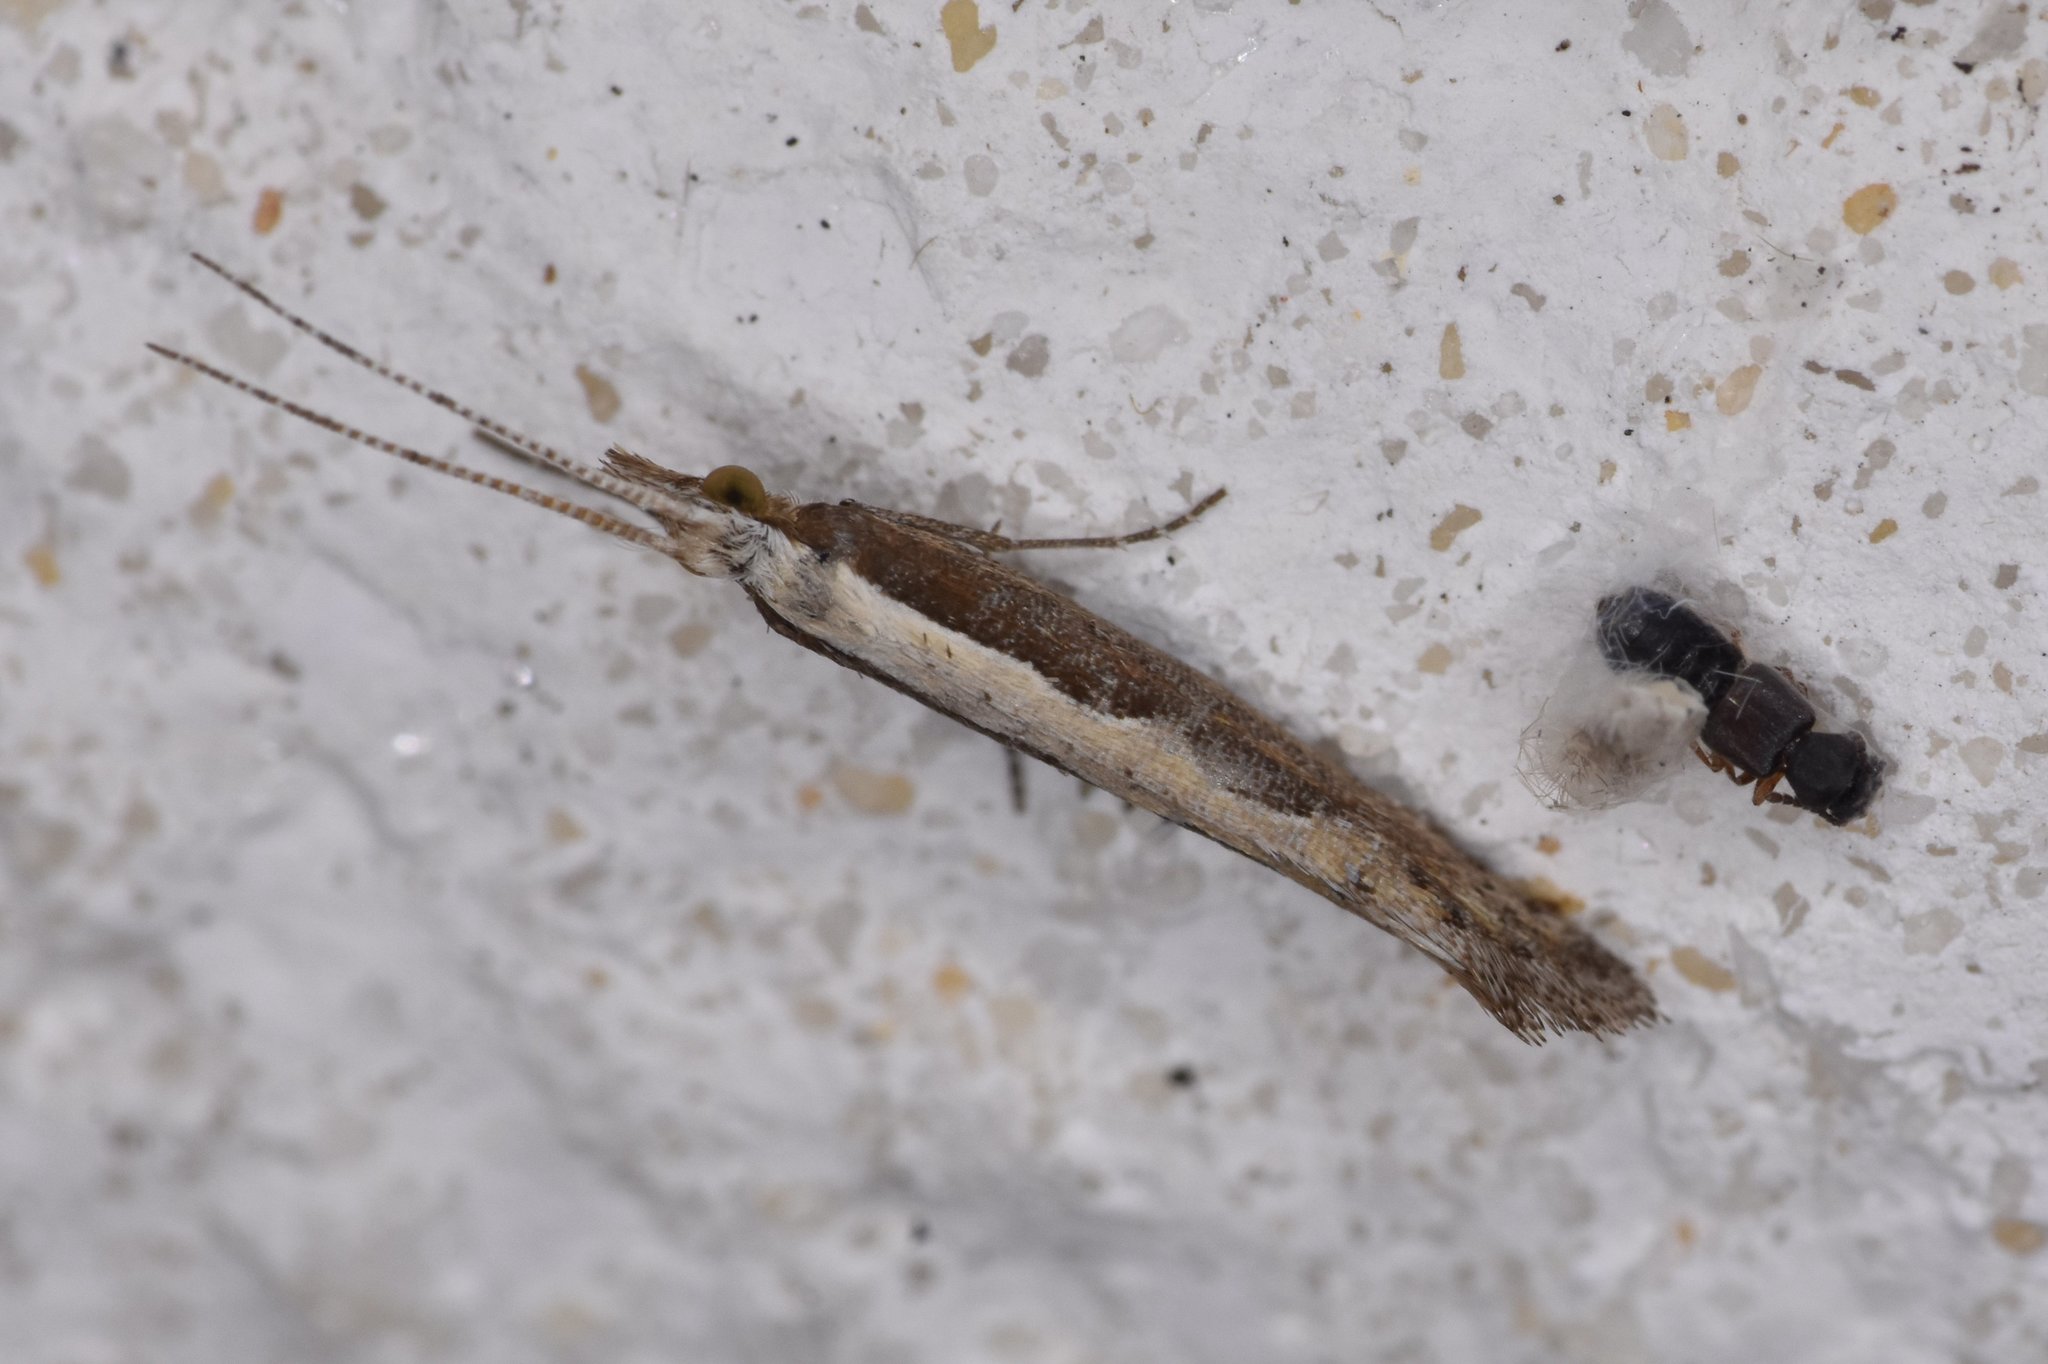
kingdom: Animalia
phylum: Arthropoda
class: Insecta
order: Lepidoptera
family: Plutellidae
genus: Plutella
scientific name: Plutella xylostella
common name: Diamond-back moth
